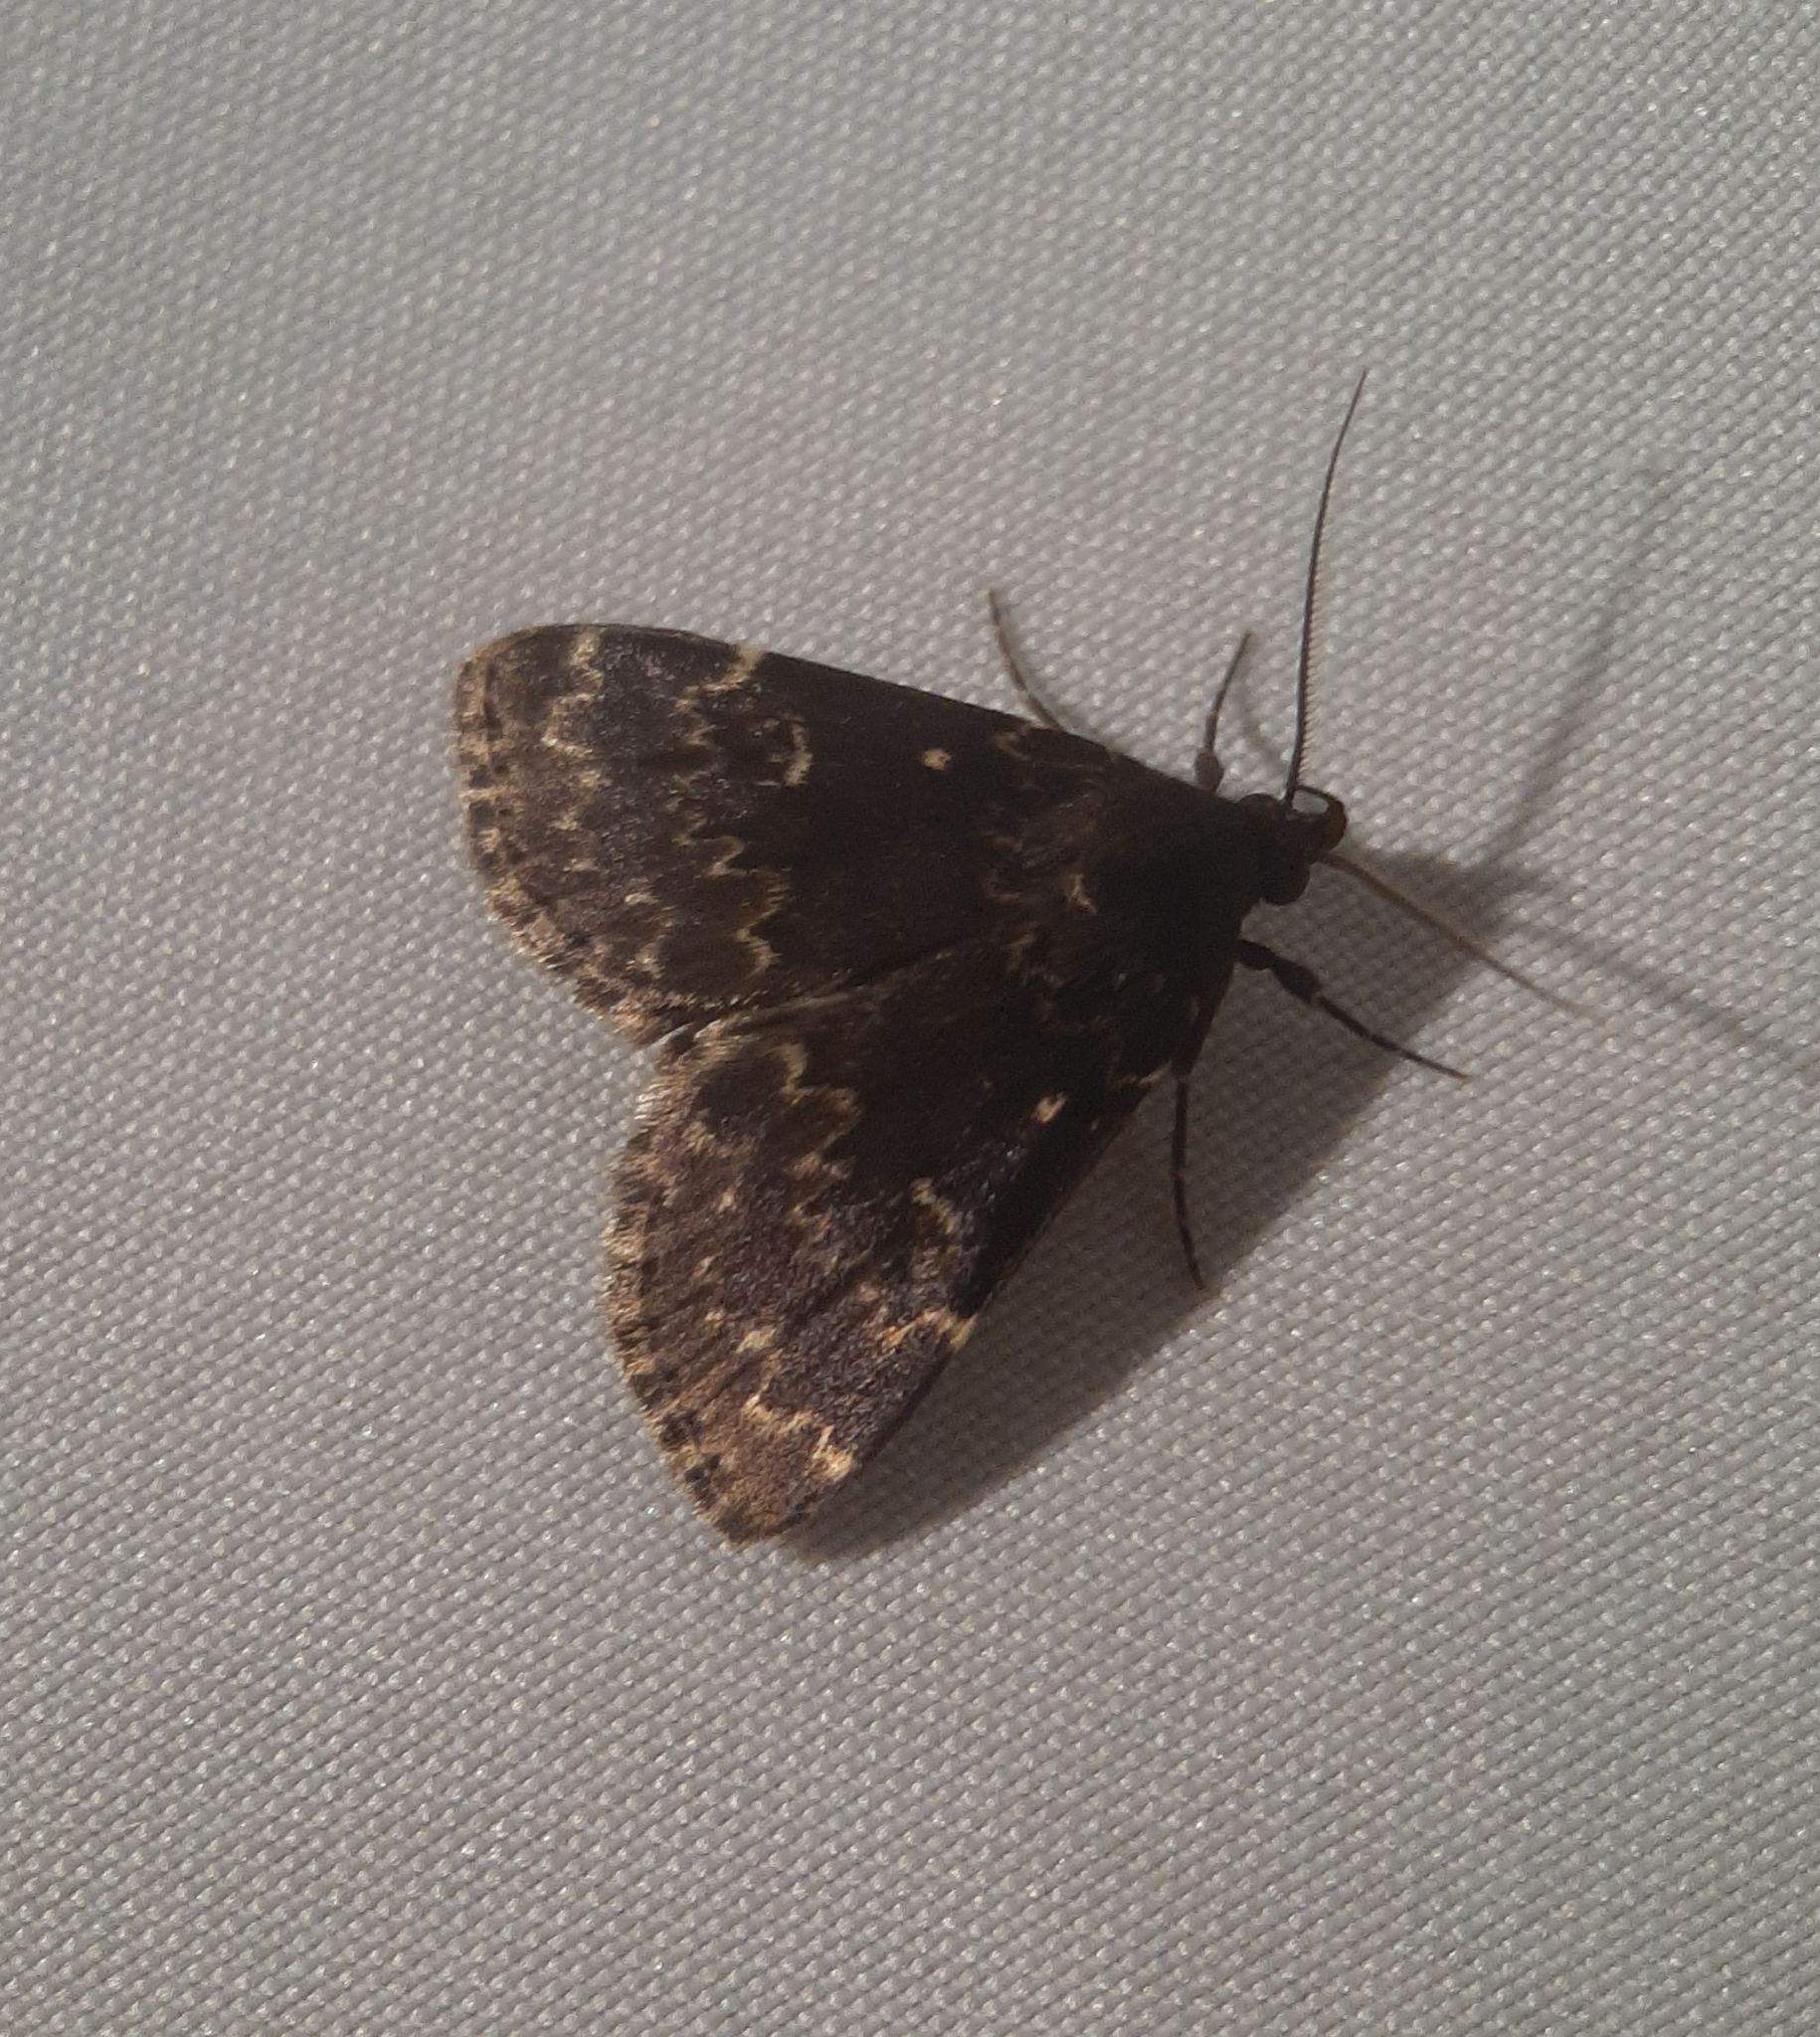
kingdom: Animalia
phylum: Arthropoda
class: Insecta
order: Lepidoptera
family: Erebidae
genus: Idia
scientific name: Idia lubricalis
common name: Twin-striped tabby
